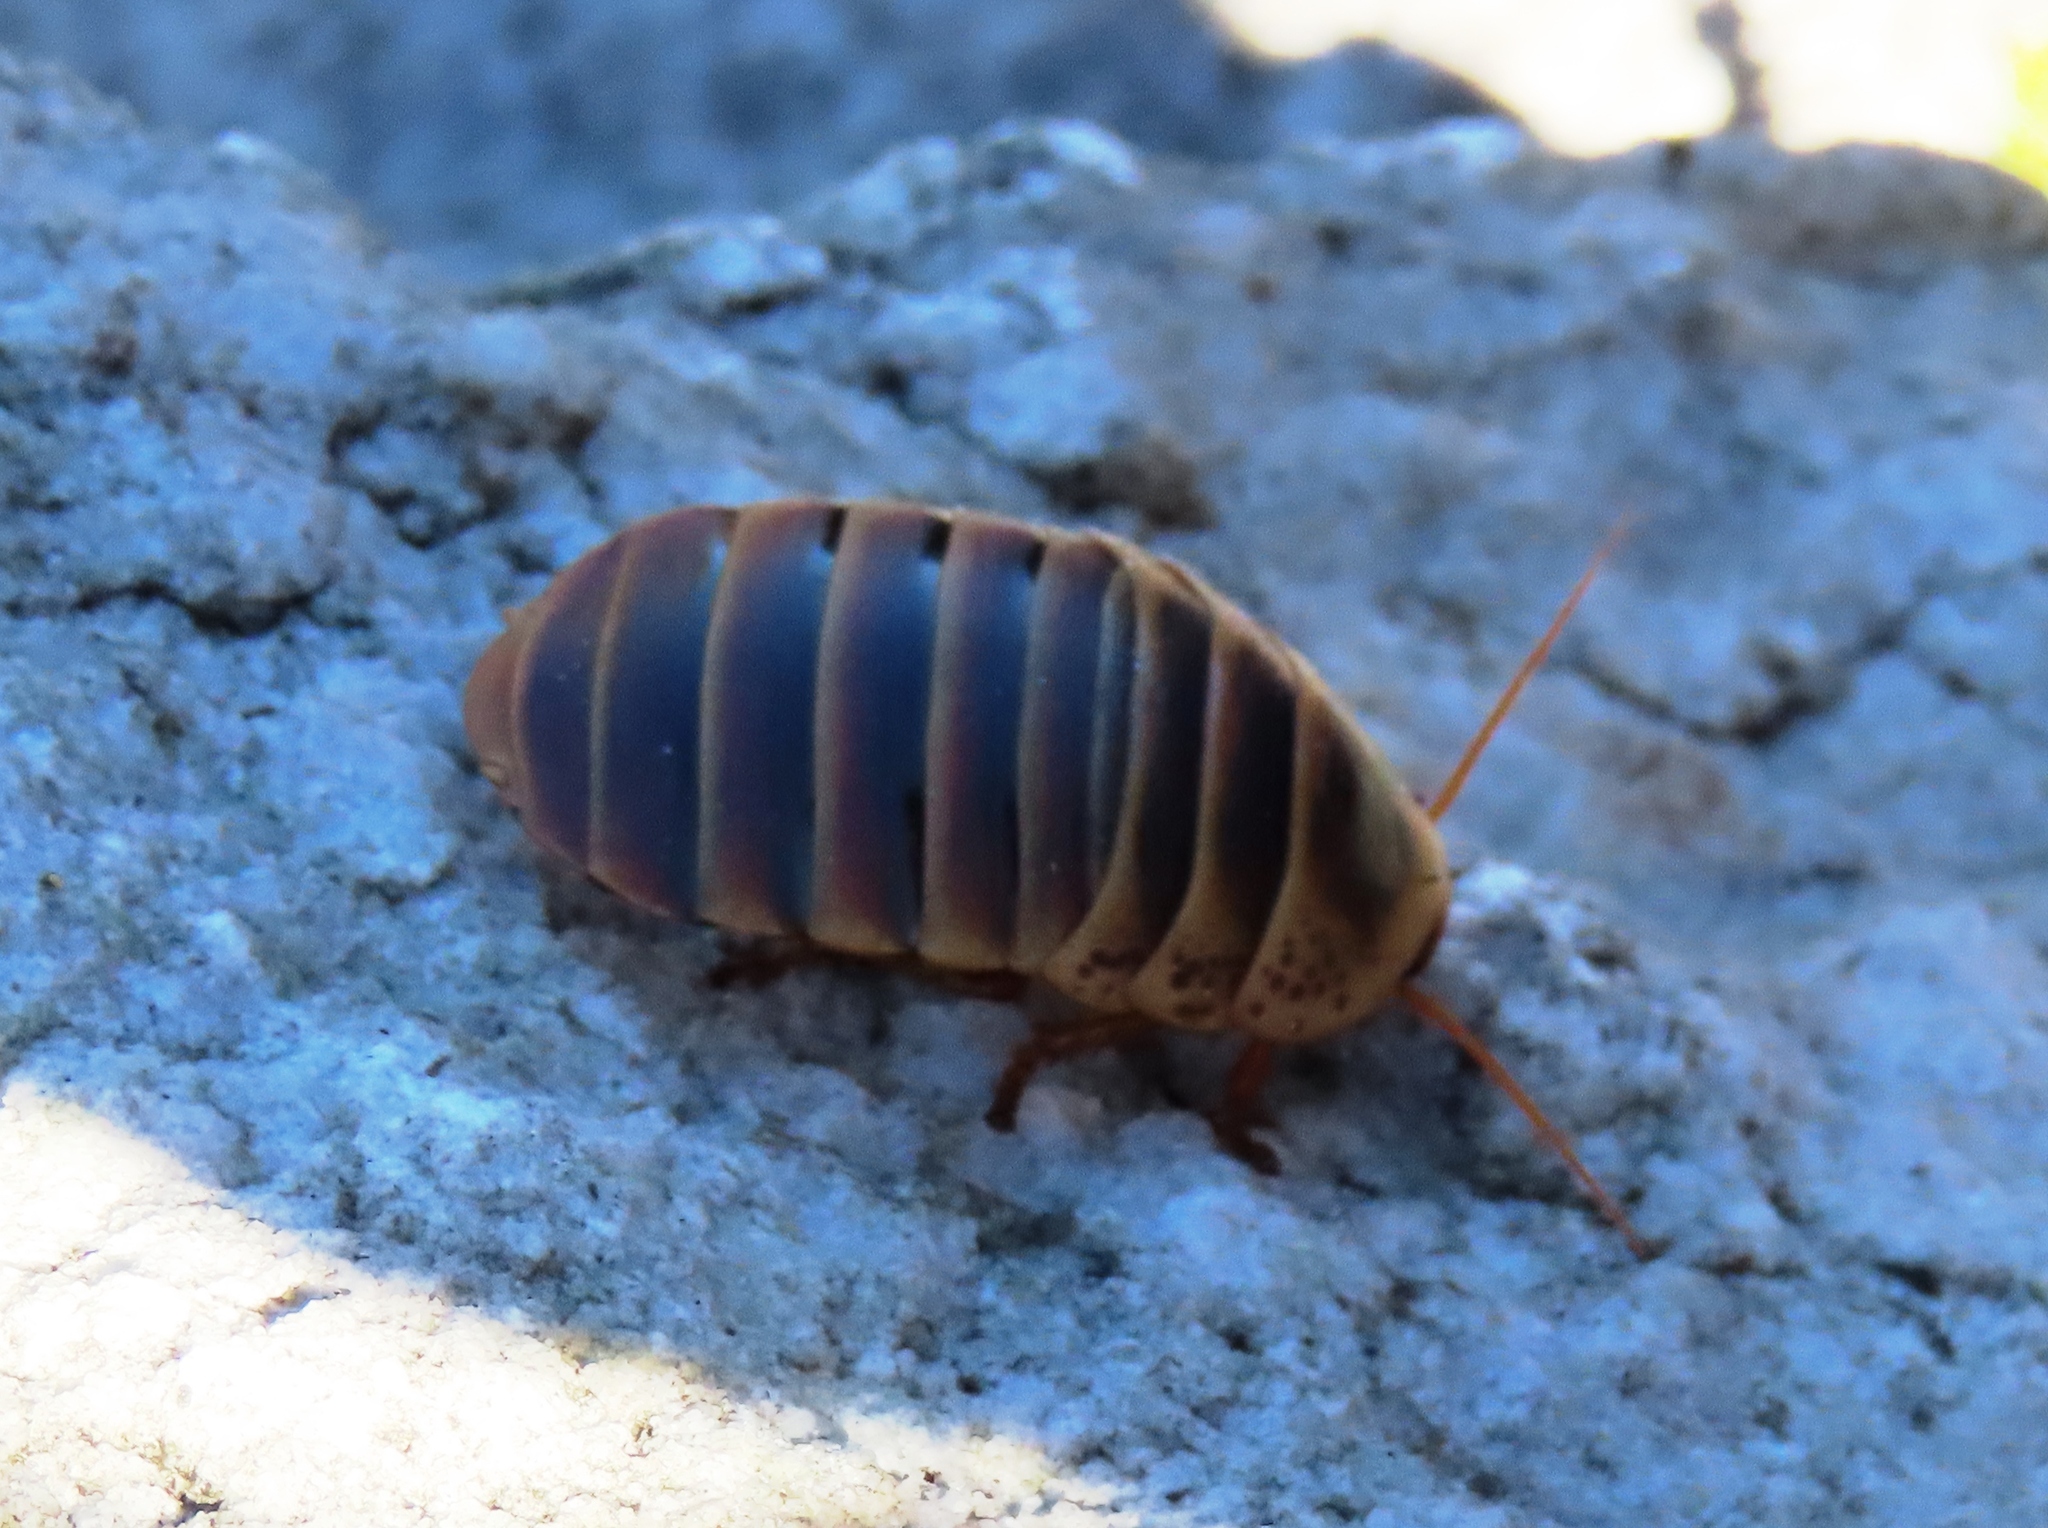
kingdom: Animalia
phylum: Arthropoda
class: Insecta
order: Blattodea
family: Blaberidae
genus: Aptera
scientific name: Aptera fusca
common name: Cape mountain cockroach
